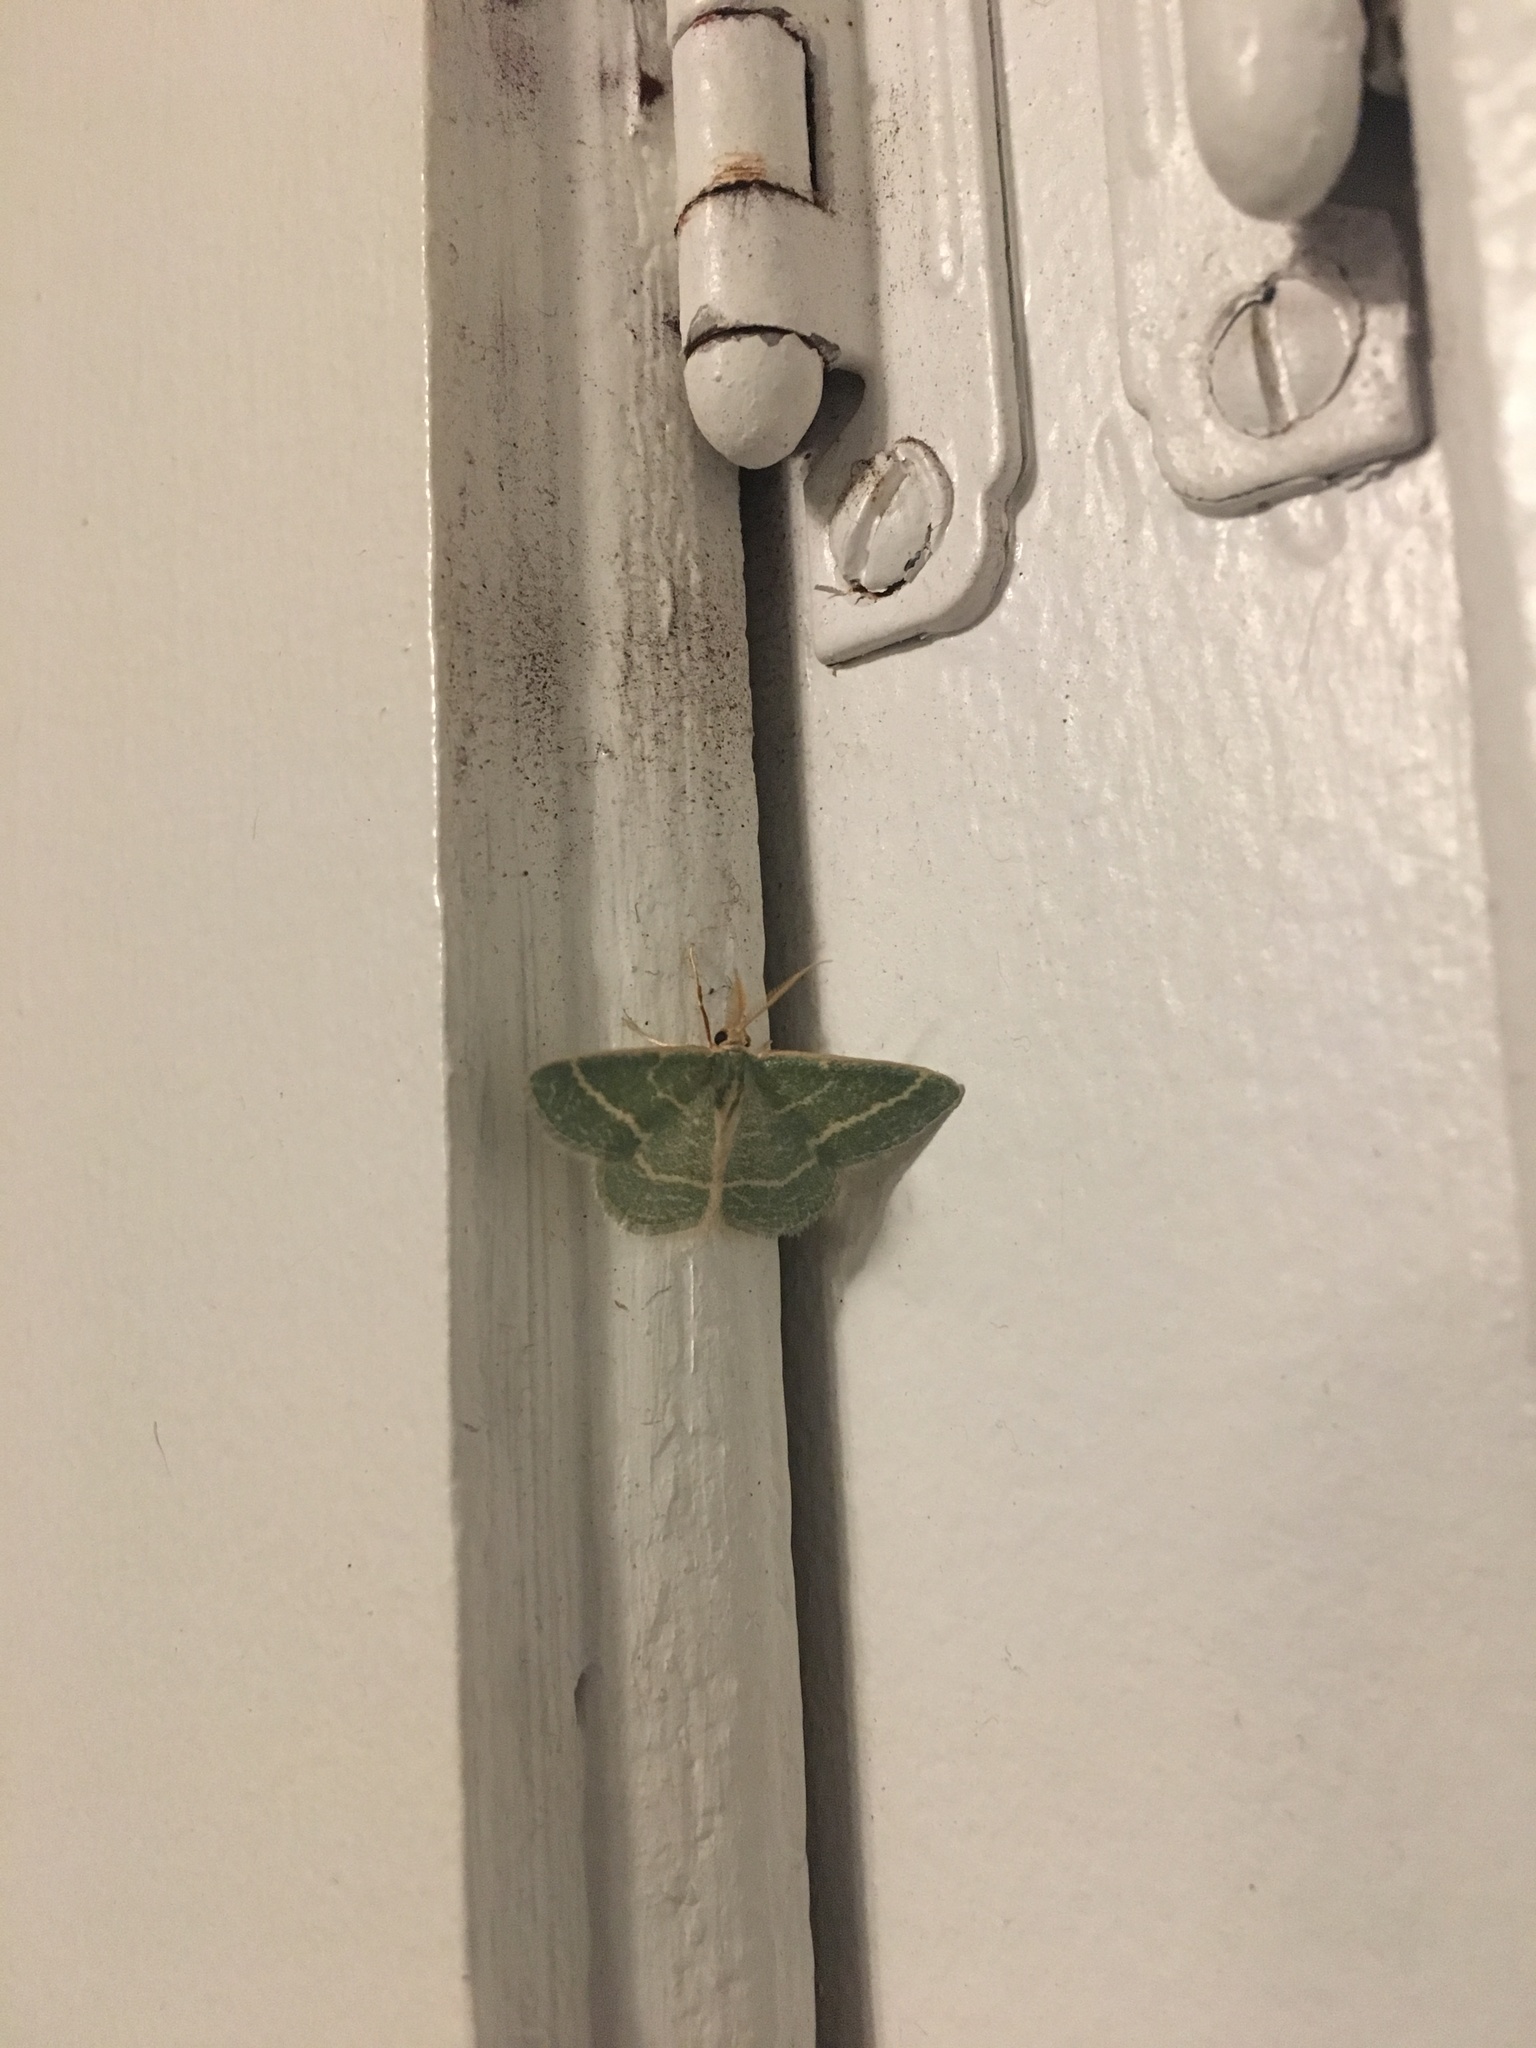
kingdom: Animalia
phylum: Arthropoda
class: Insecta
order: Lepidoptera
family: Geometridae
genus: Chlorochlamys
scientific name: Chlorochlamys chloroleucaria
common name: Blackberry looper
